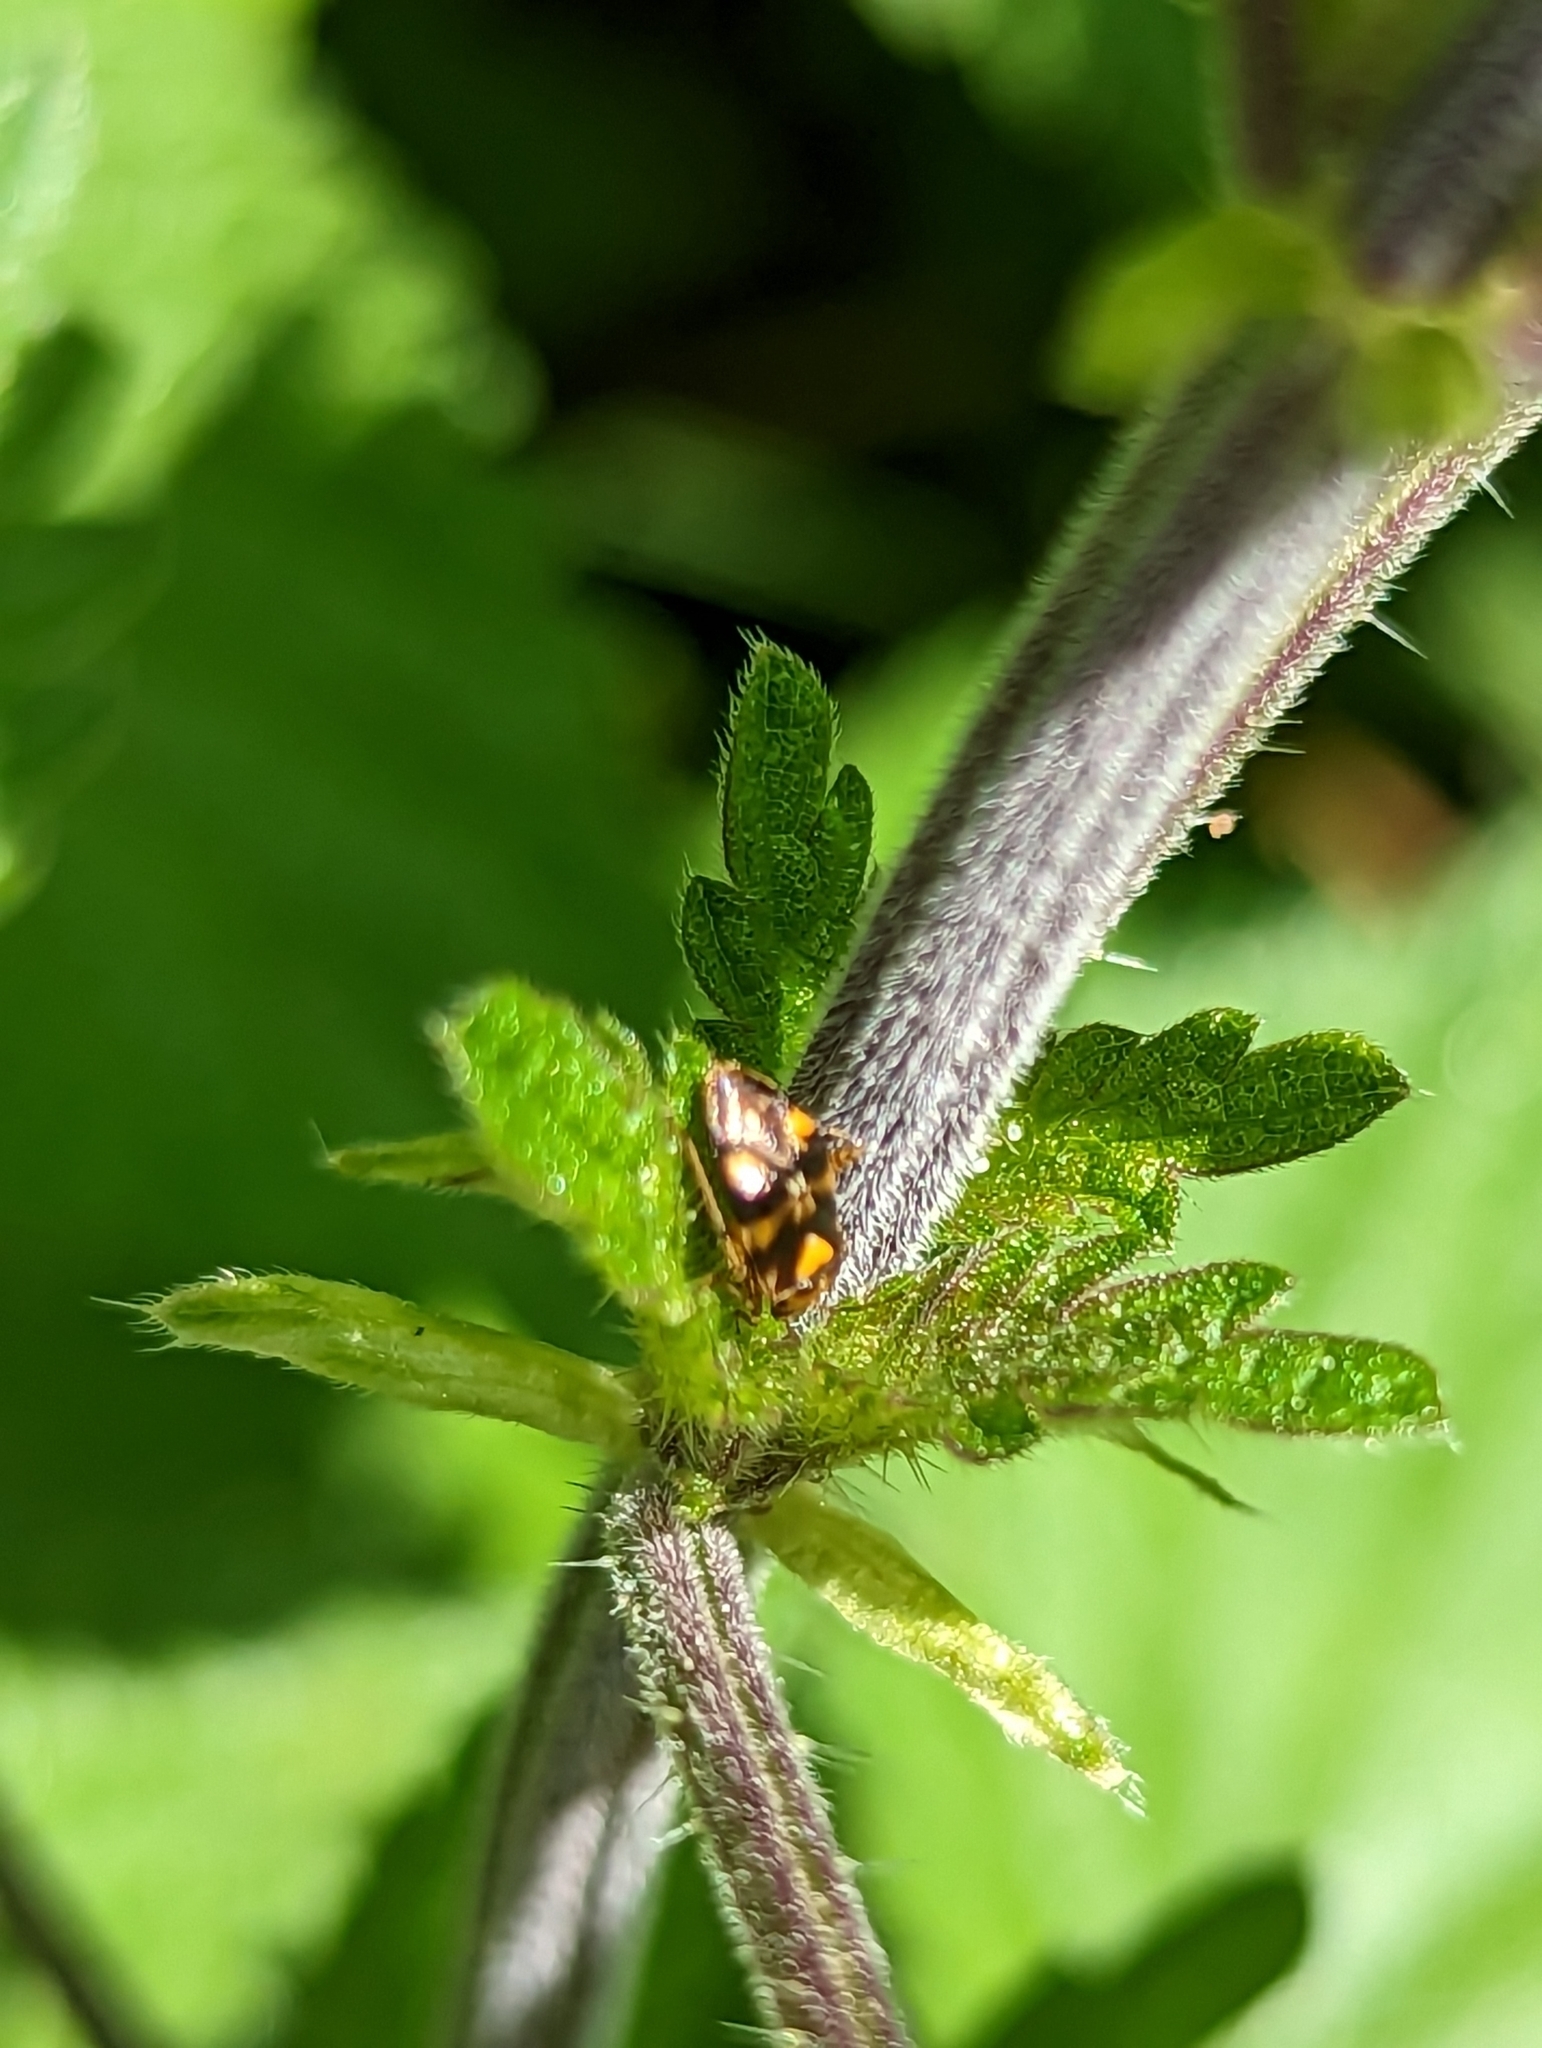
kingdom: Animalia
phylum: Arthropoda
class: Insecta
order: Hemiptera
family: Miridae
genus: Liocoris
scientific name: Liocoris tripustulatus
